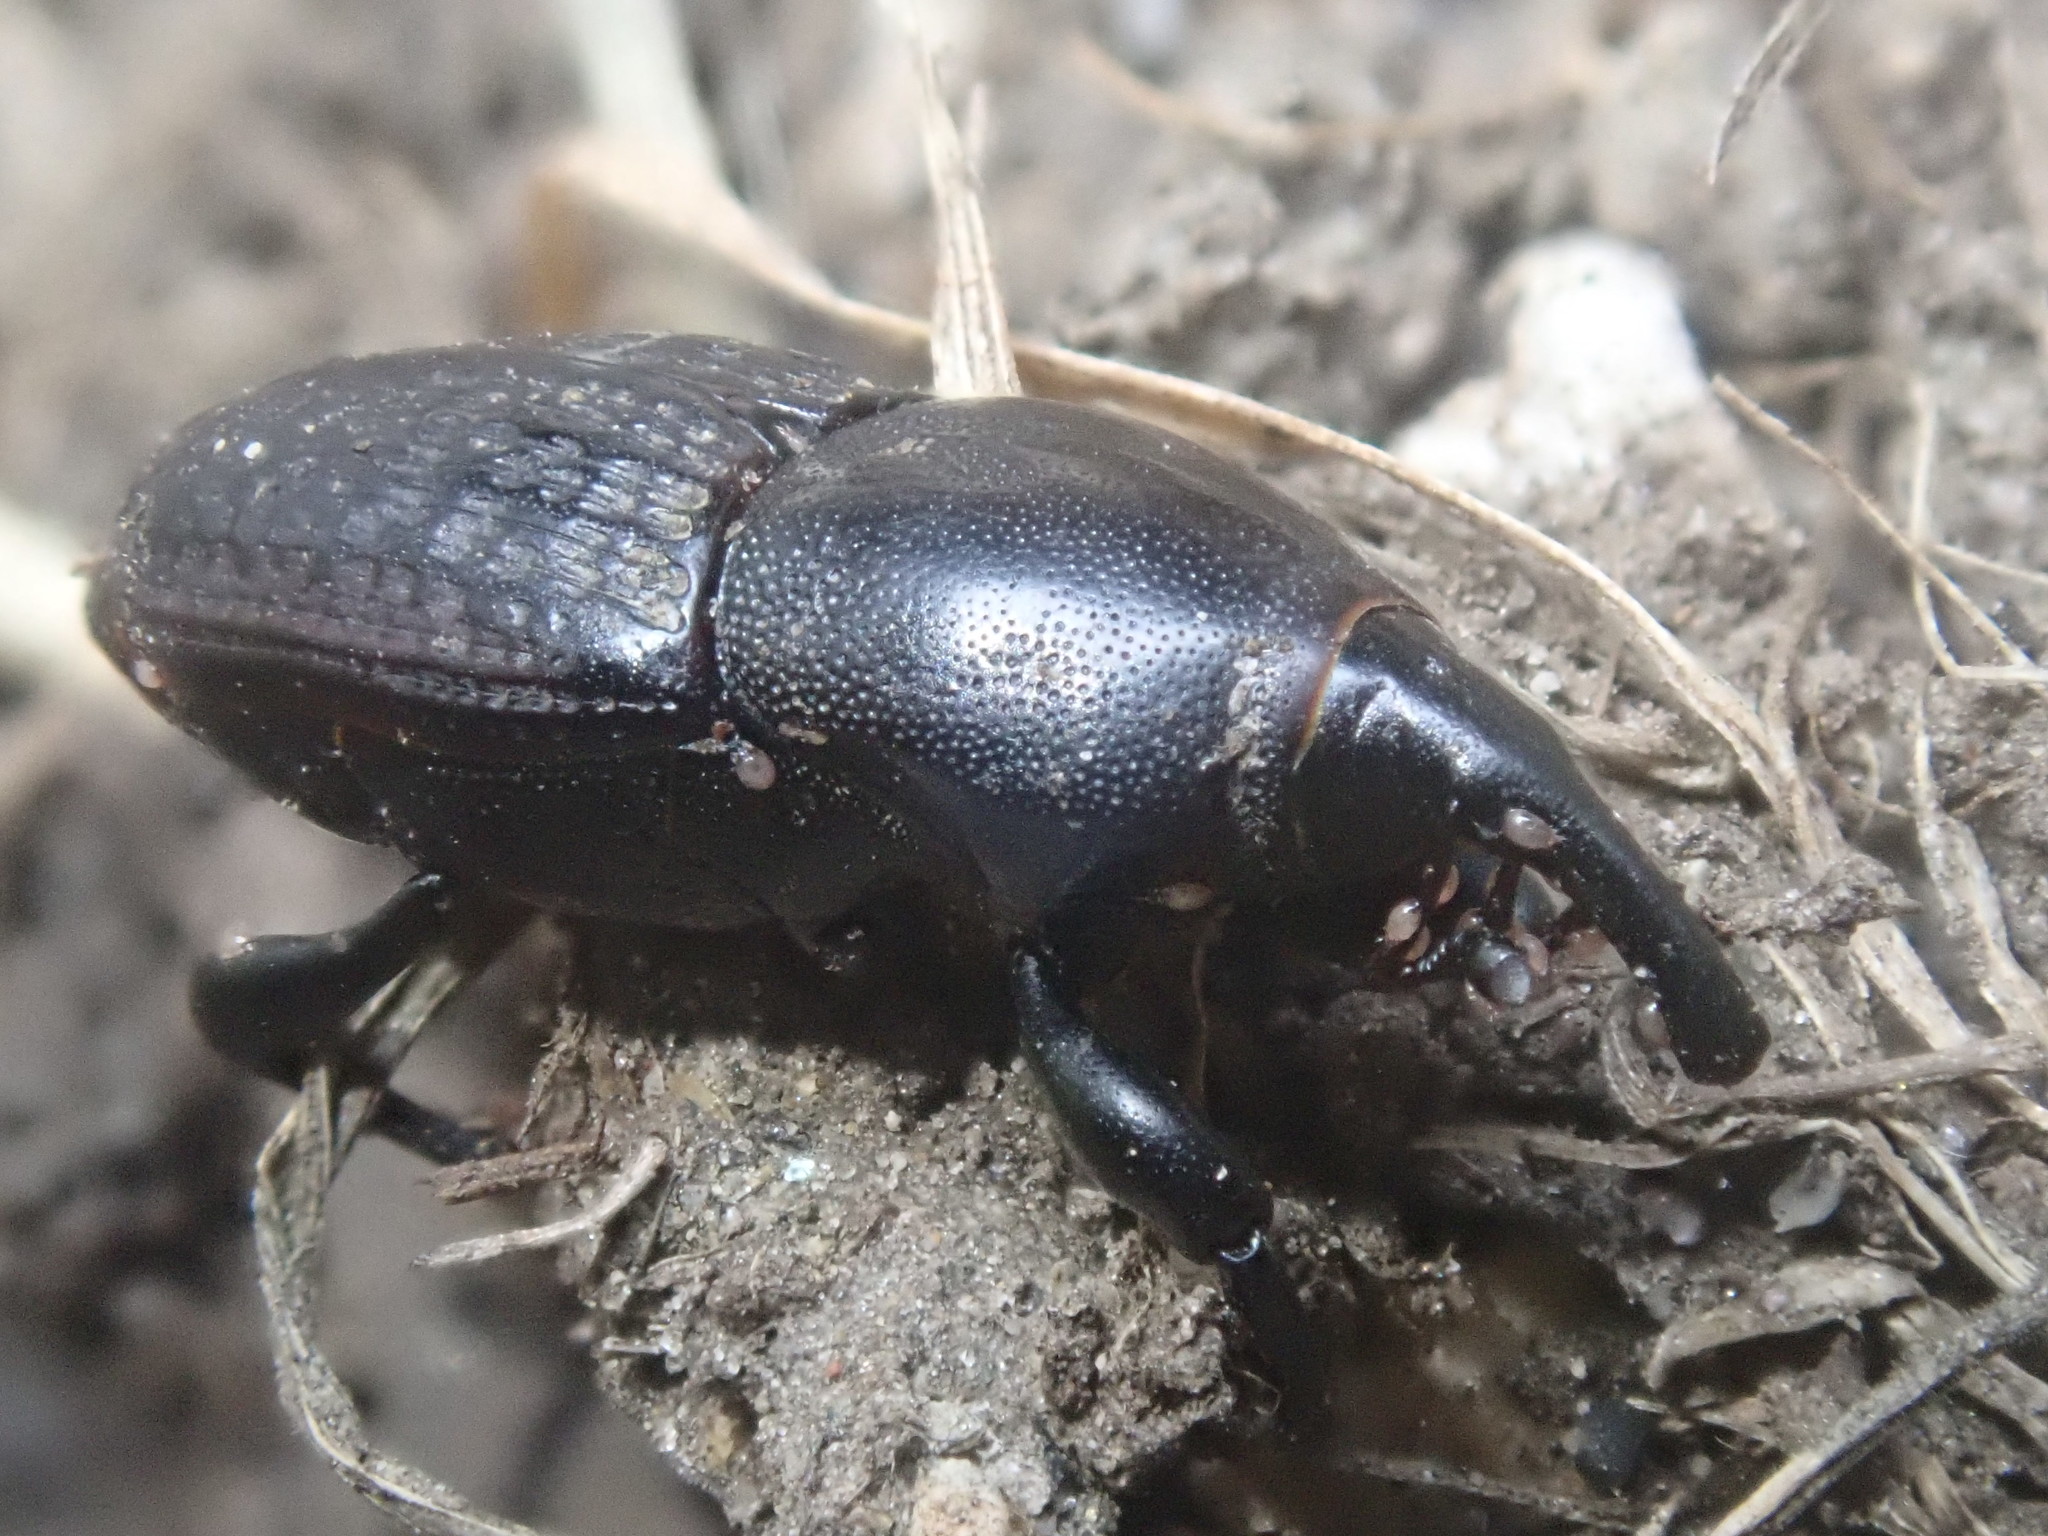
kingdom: Animalia
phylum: Arthropoda
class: Insecta
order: Coleoptera
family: Dryophthoridae
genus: Sphenophorus
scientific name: Sphenophorus cicatristriatus
